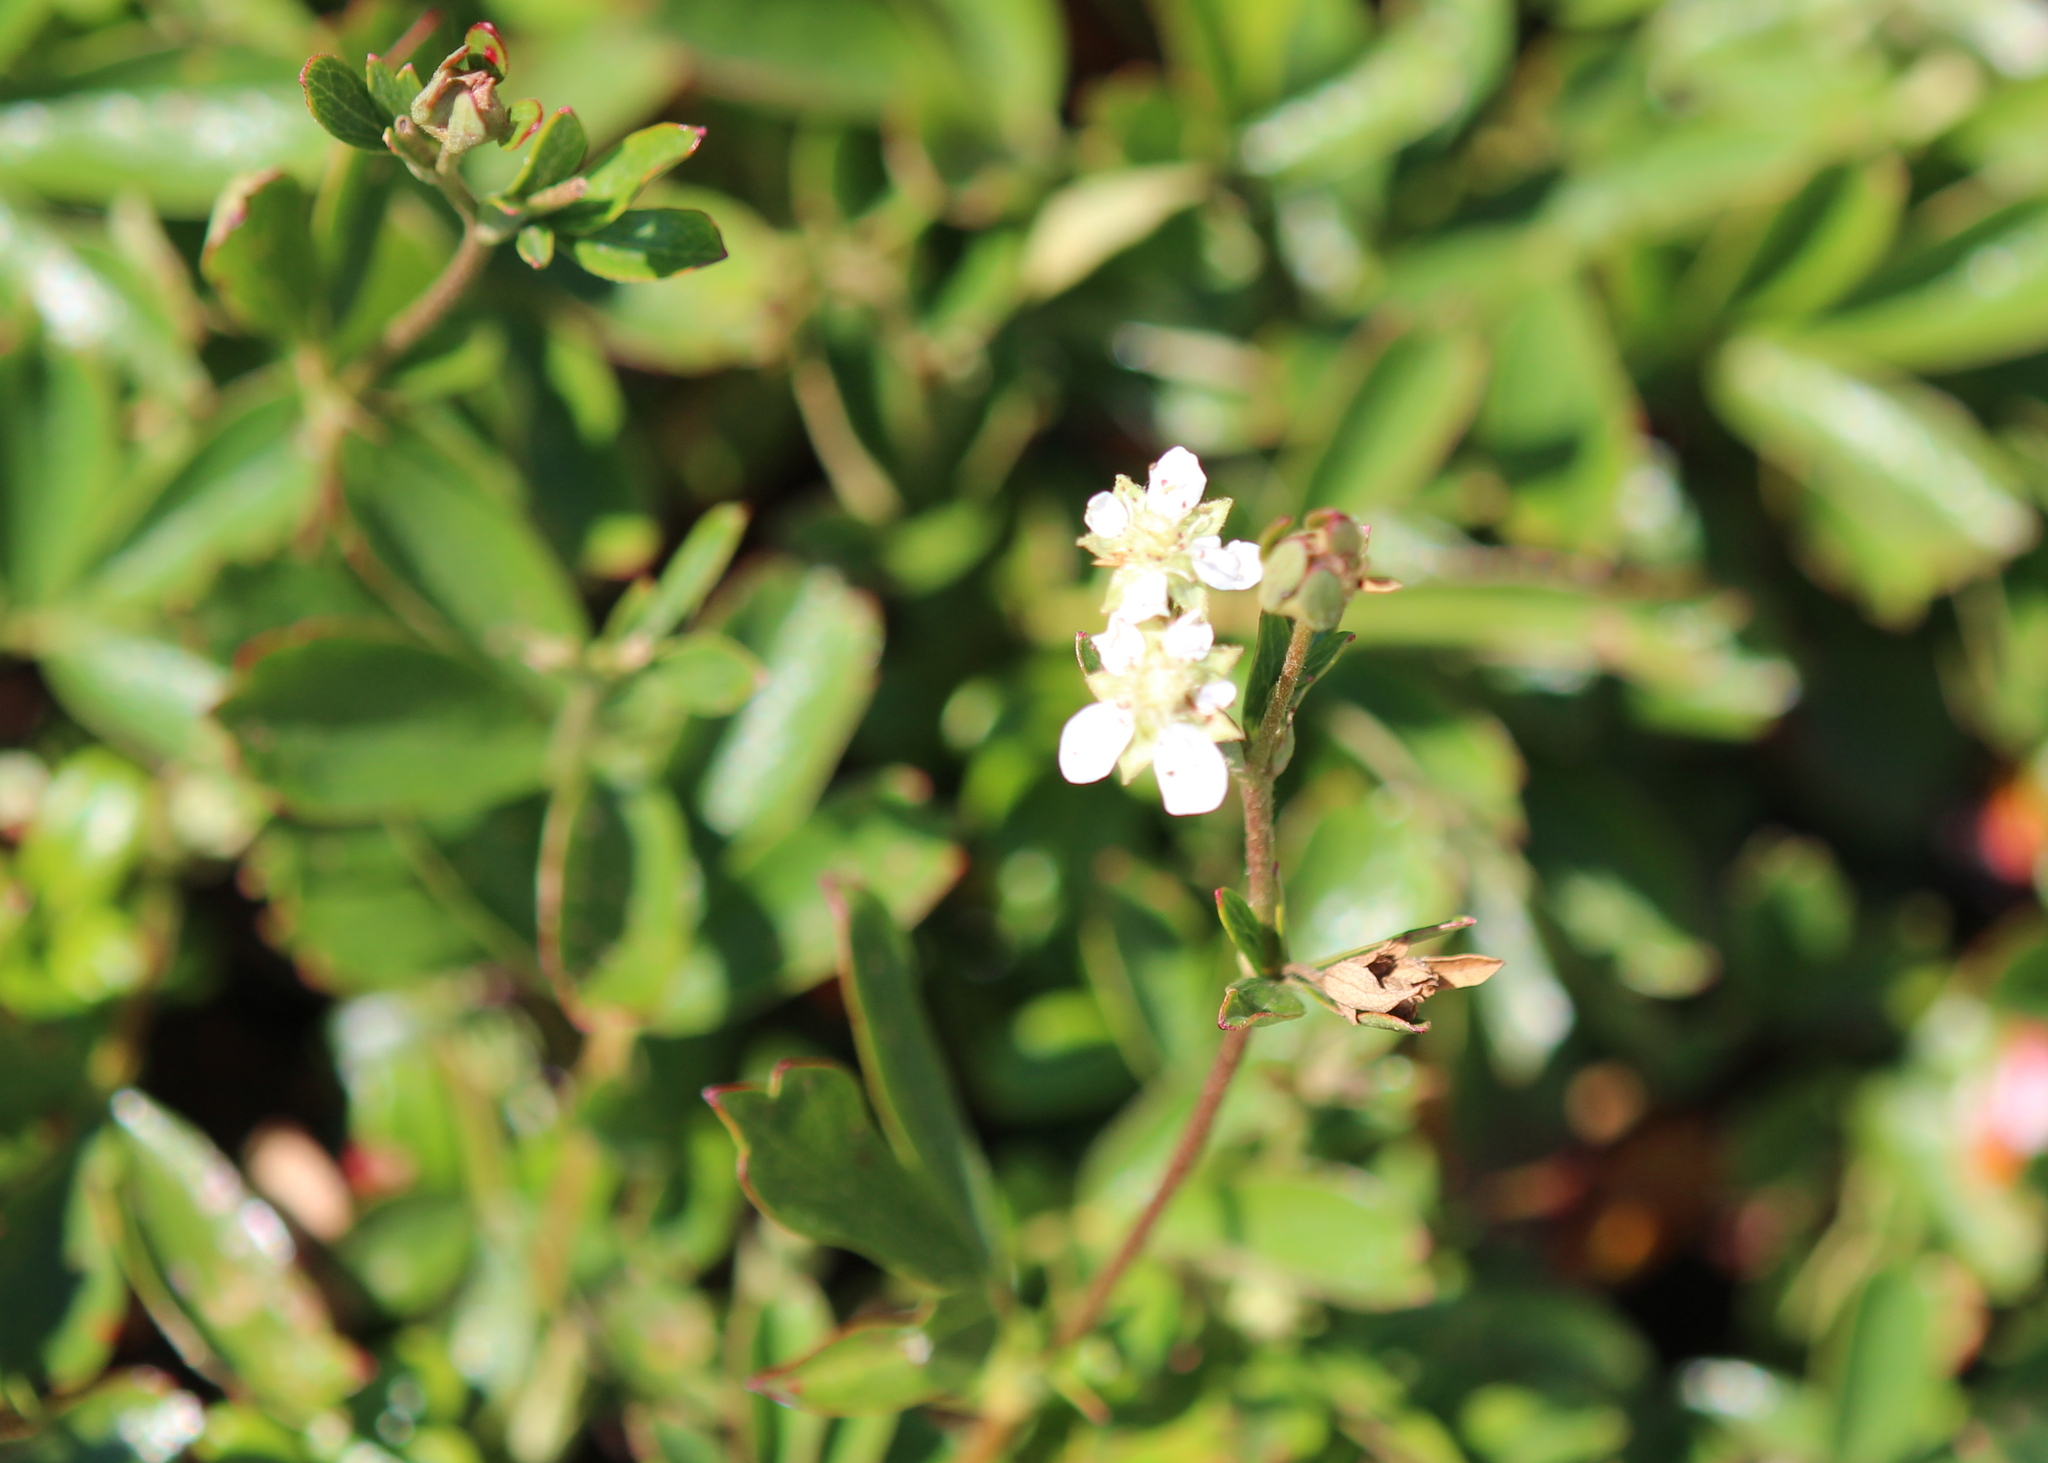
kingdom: Plantae
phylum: Tracheophyta
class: Magnoliopsida
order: Rosales
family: Rosaceae
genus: Sibbaldia
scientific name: Sibbaldia tridentata
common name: Three-toothed cinquefoil
